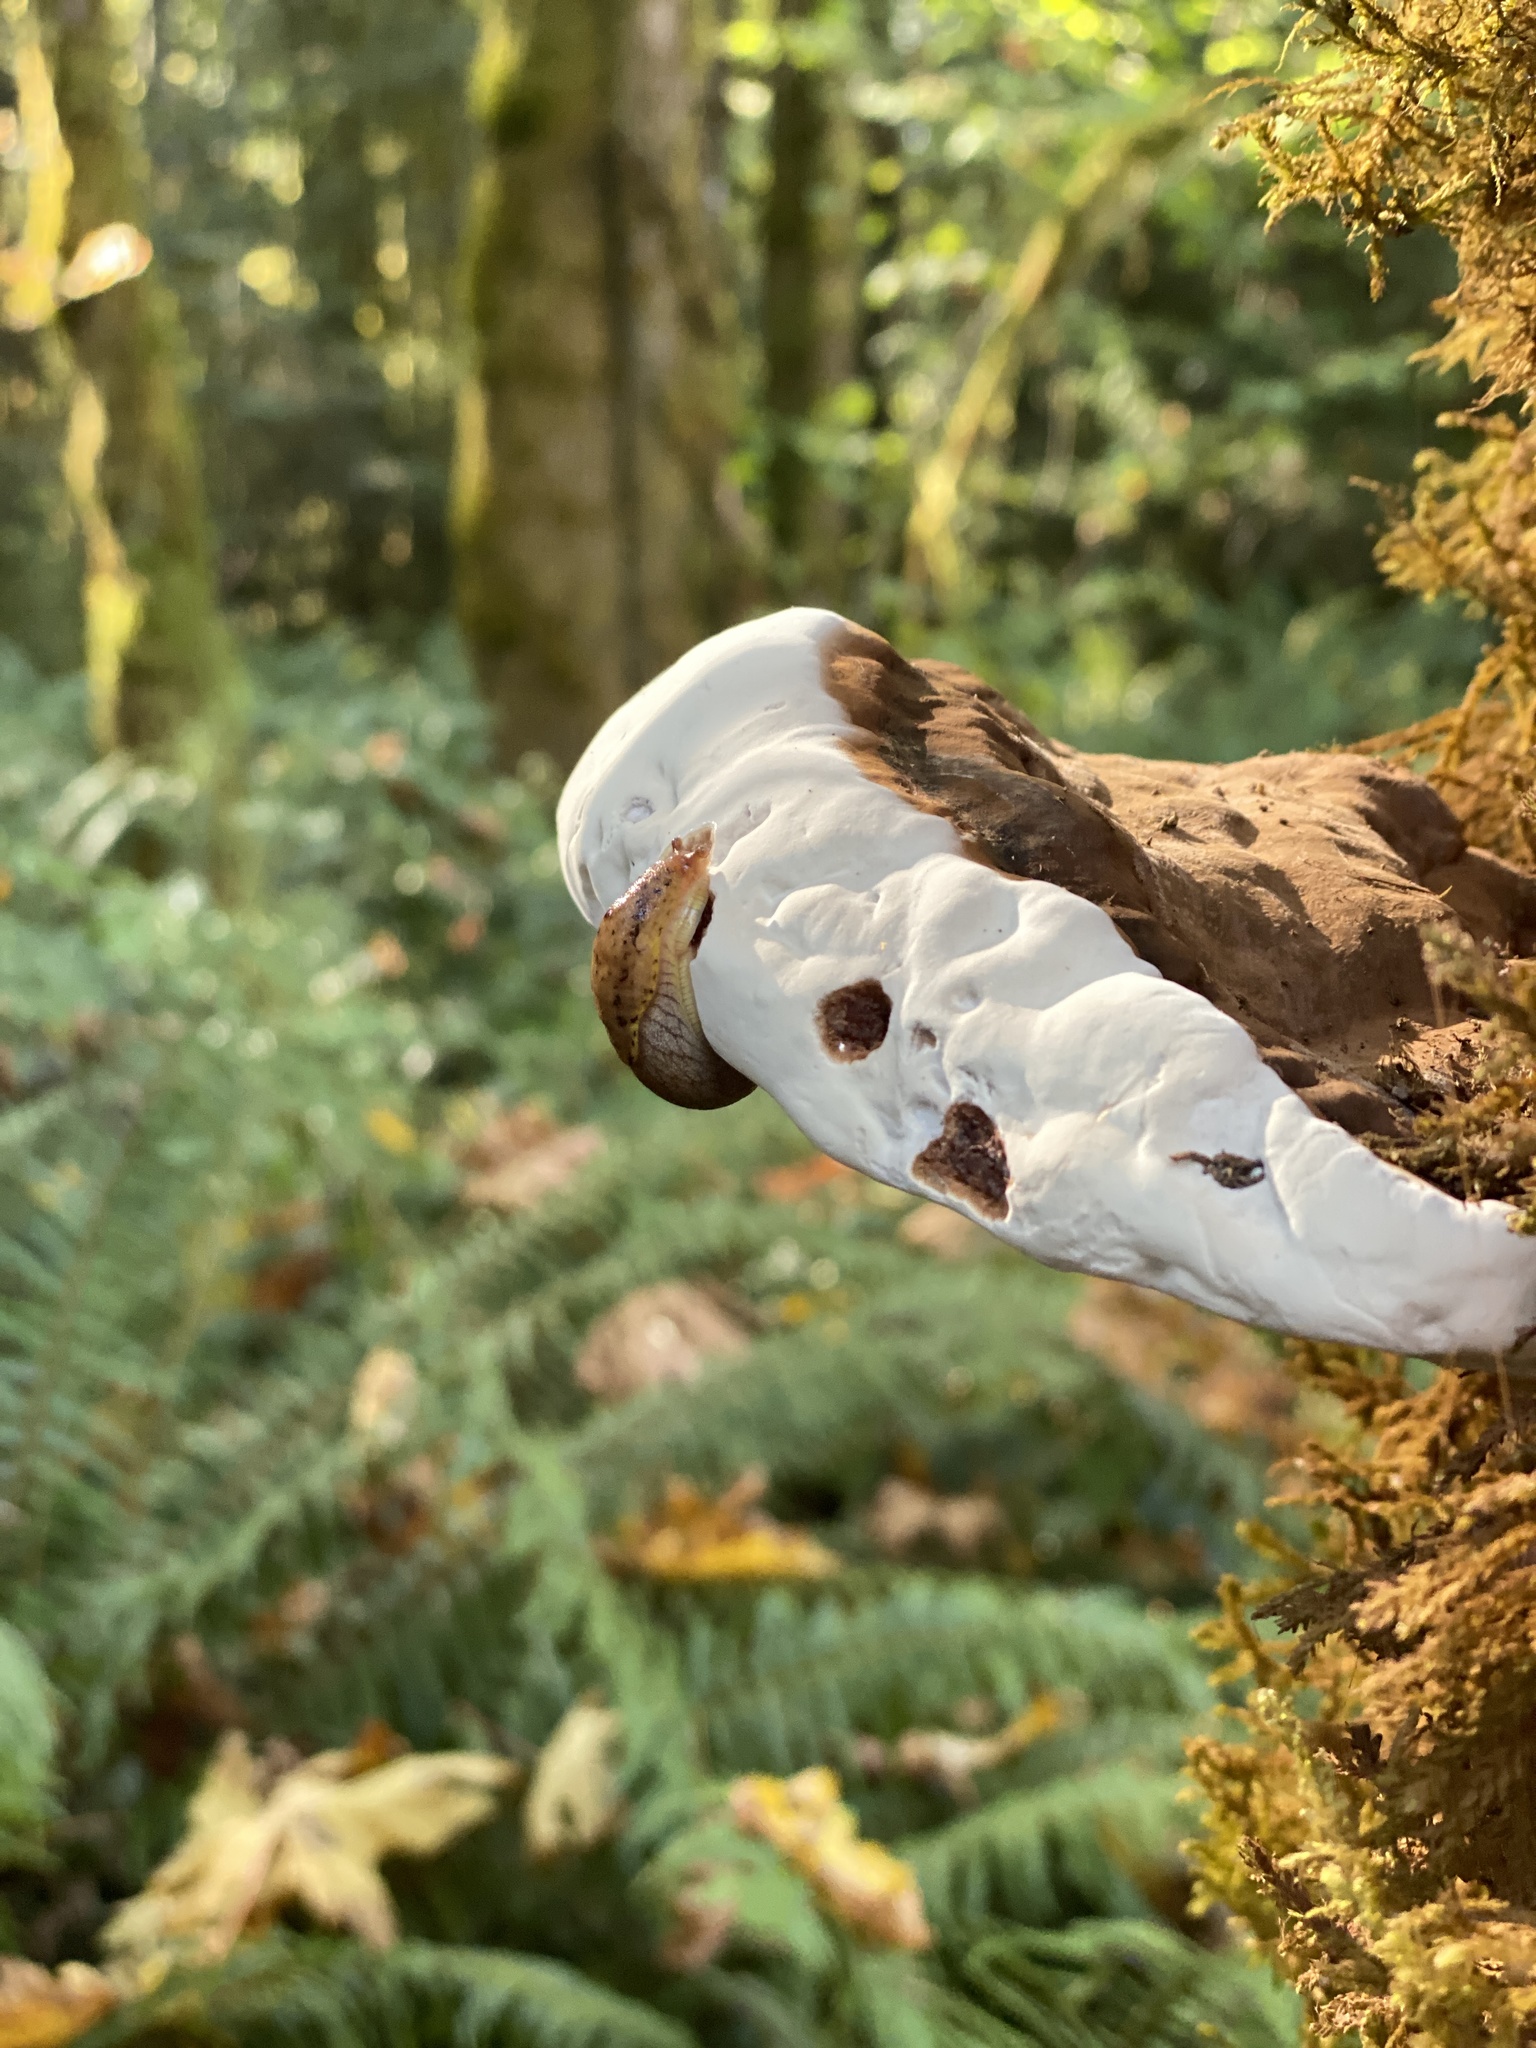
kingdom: Fungi
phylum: Basidiomycota
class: Agaricomycetes
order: Polyporales
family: Polyporaceae
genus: Ganoderma
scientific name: Ganoderma applanatum
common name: Artist's bracket
